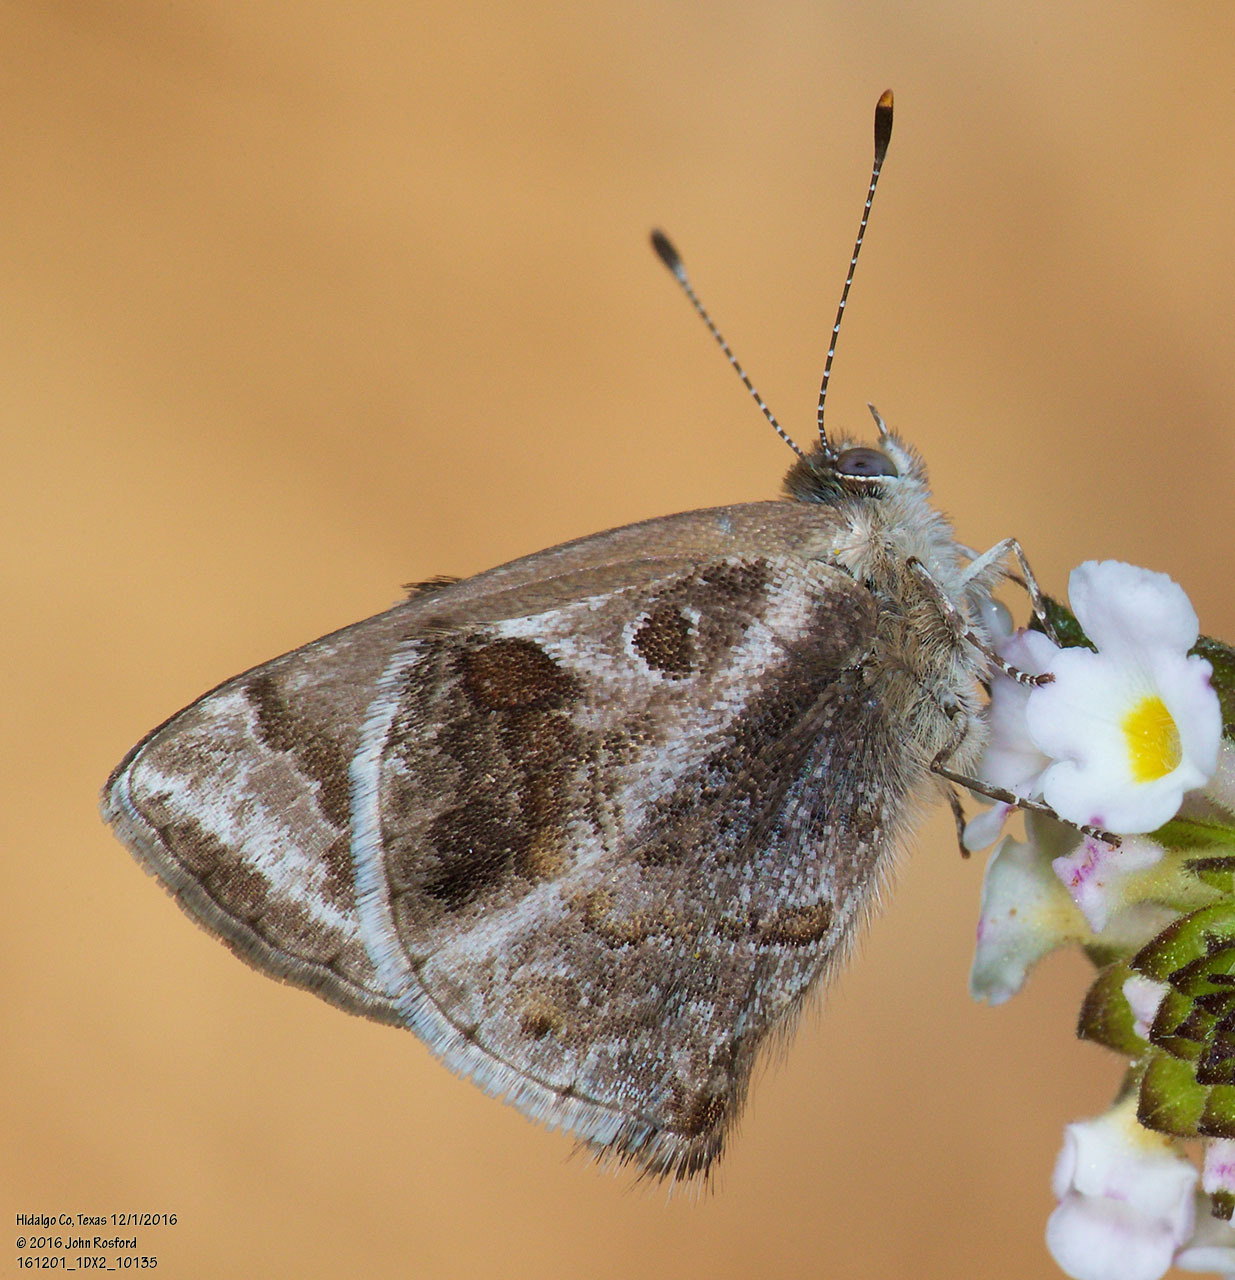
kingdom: Animalia
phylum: Arthropoda
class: Insecta
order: Lepidoptera
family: Lycaenidae
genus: Strymon
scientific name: Strymon bazochii
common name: Lantana scrub-hairstreak
